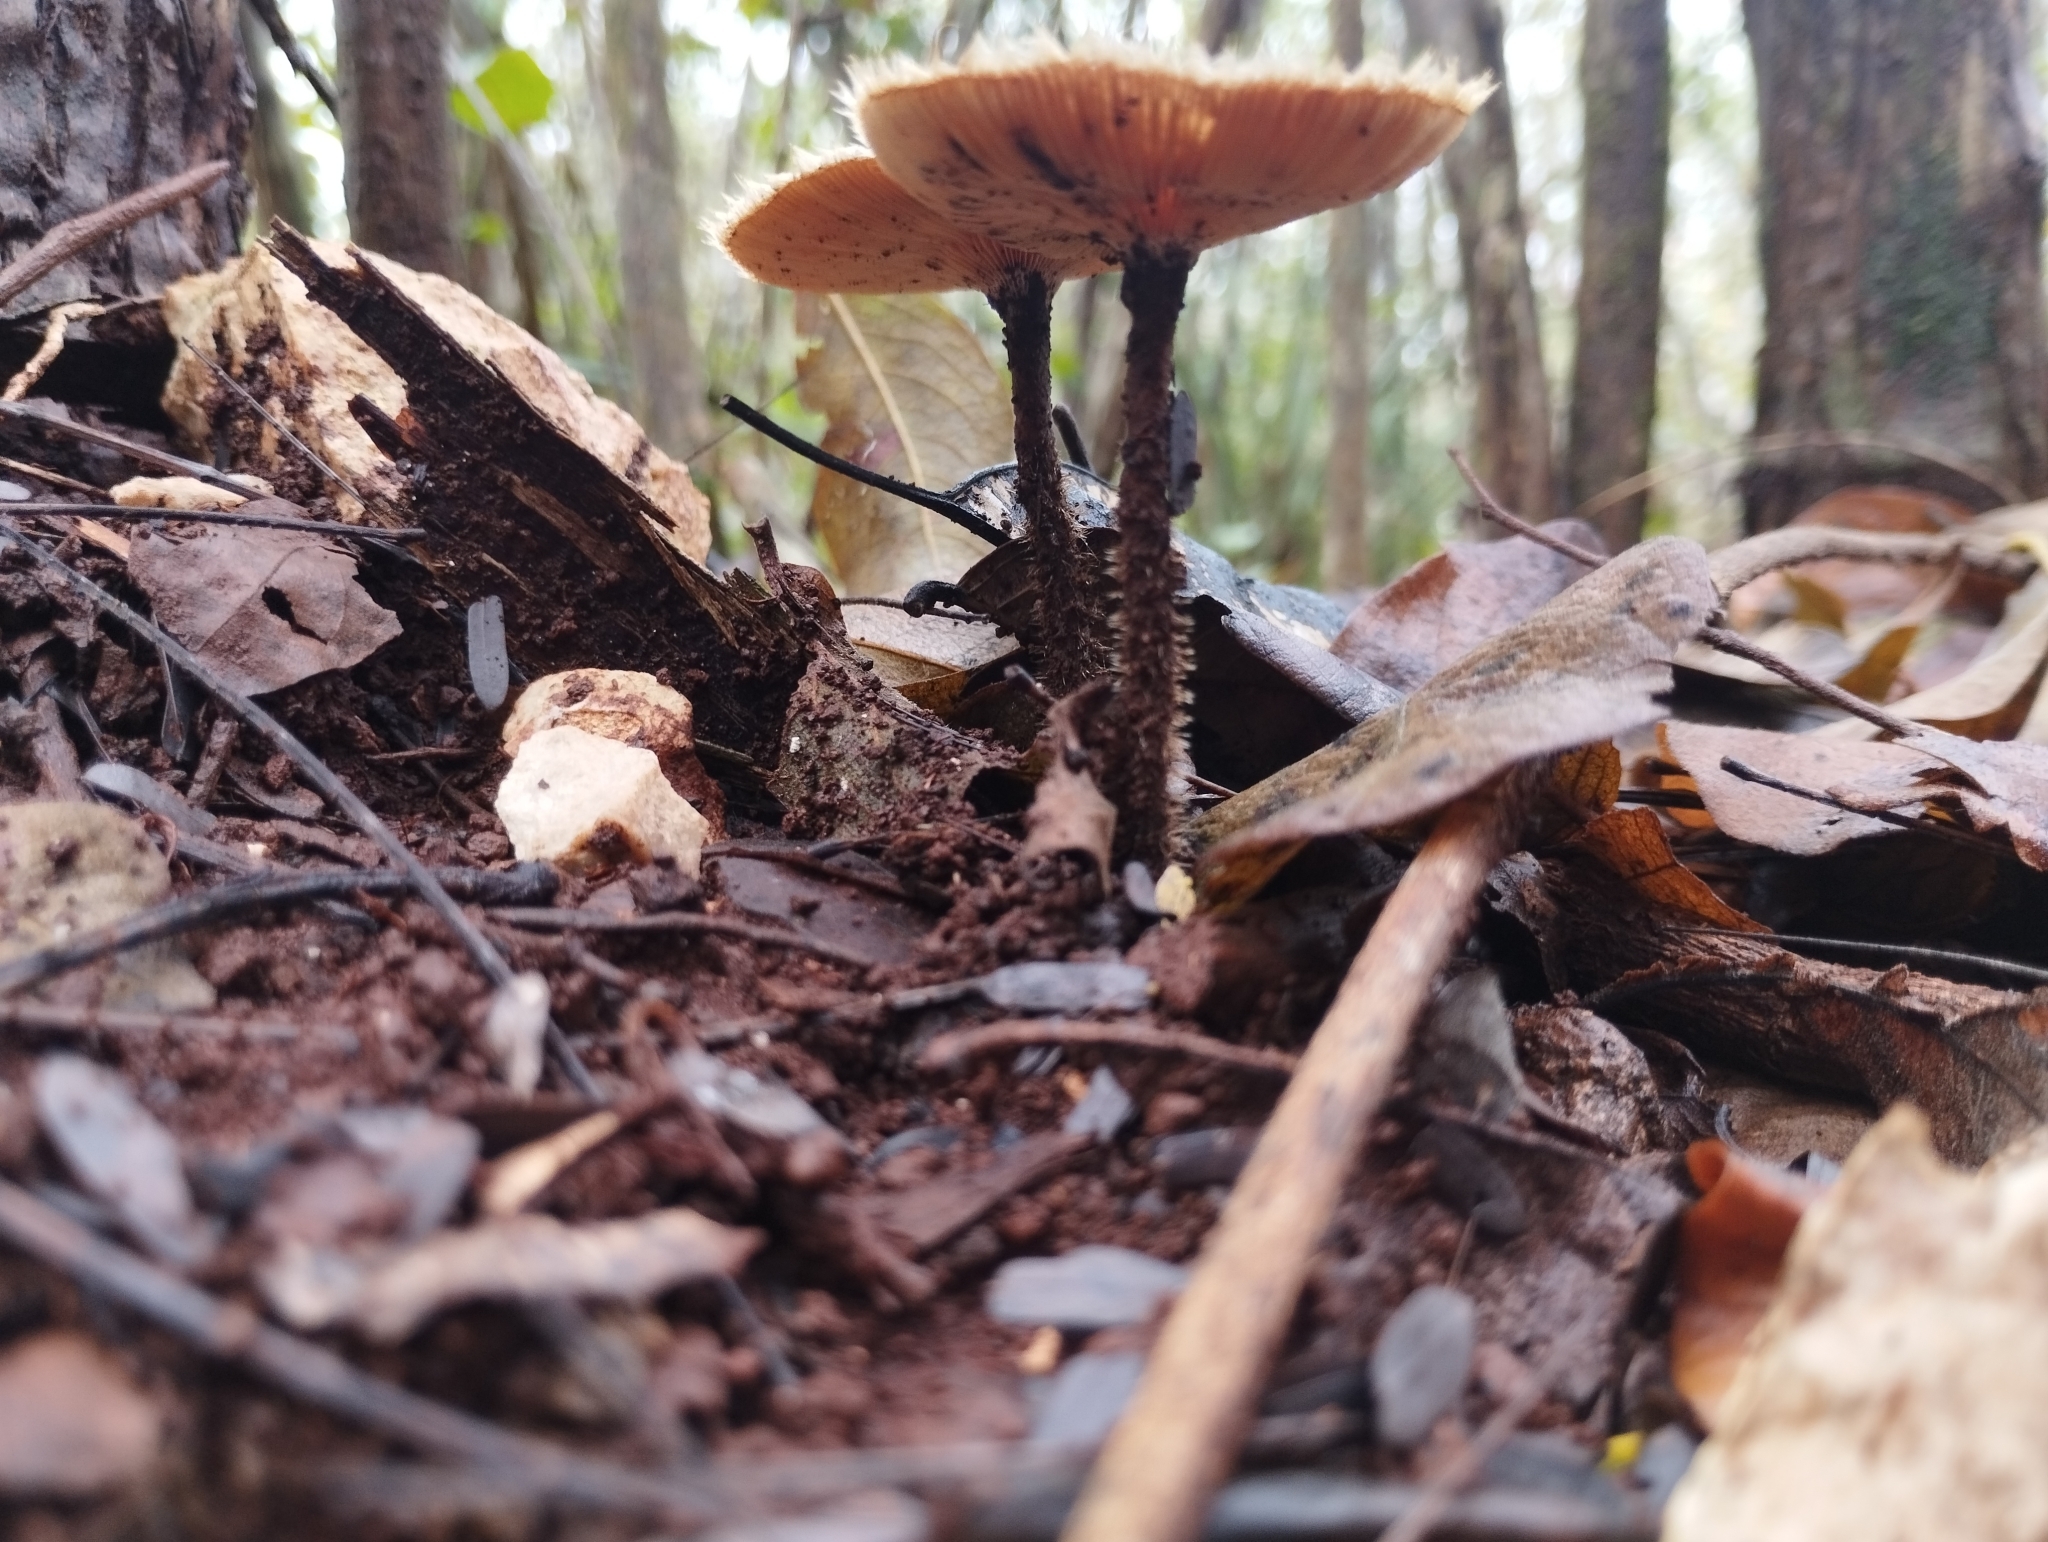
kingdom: Fungi
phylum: Basidiomycota
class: Agaricomycetes
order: Polyporales
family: Polyporaceae
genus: Lentinus
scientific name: Lentinus crinitus
